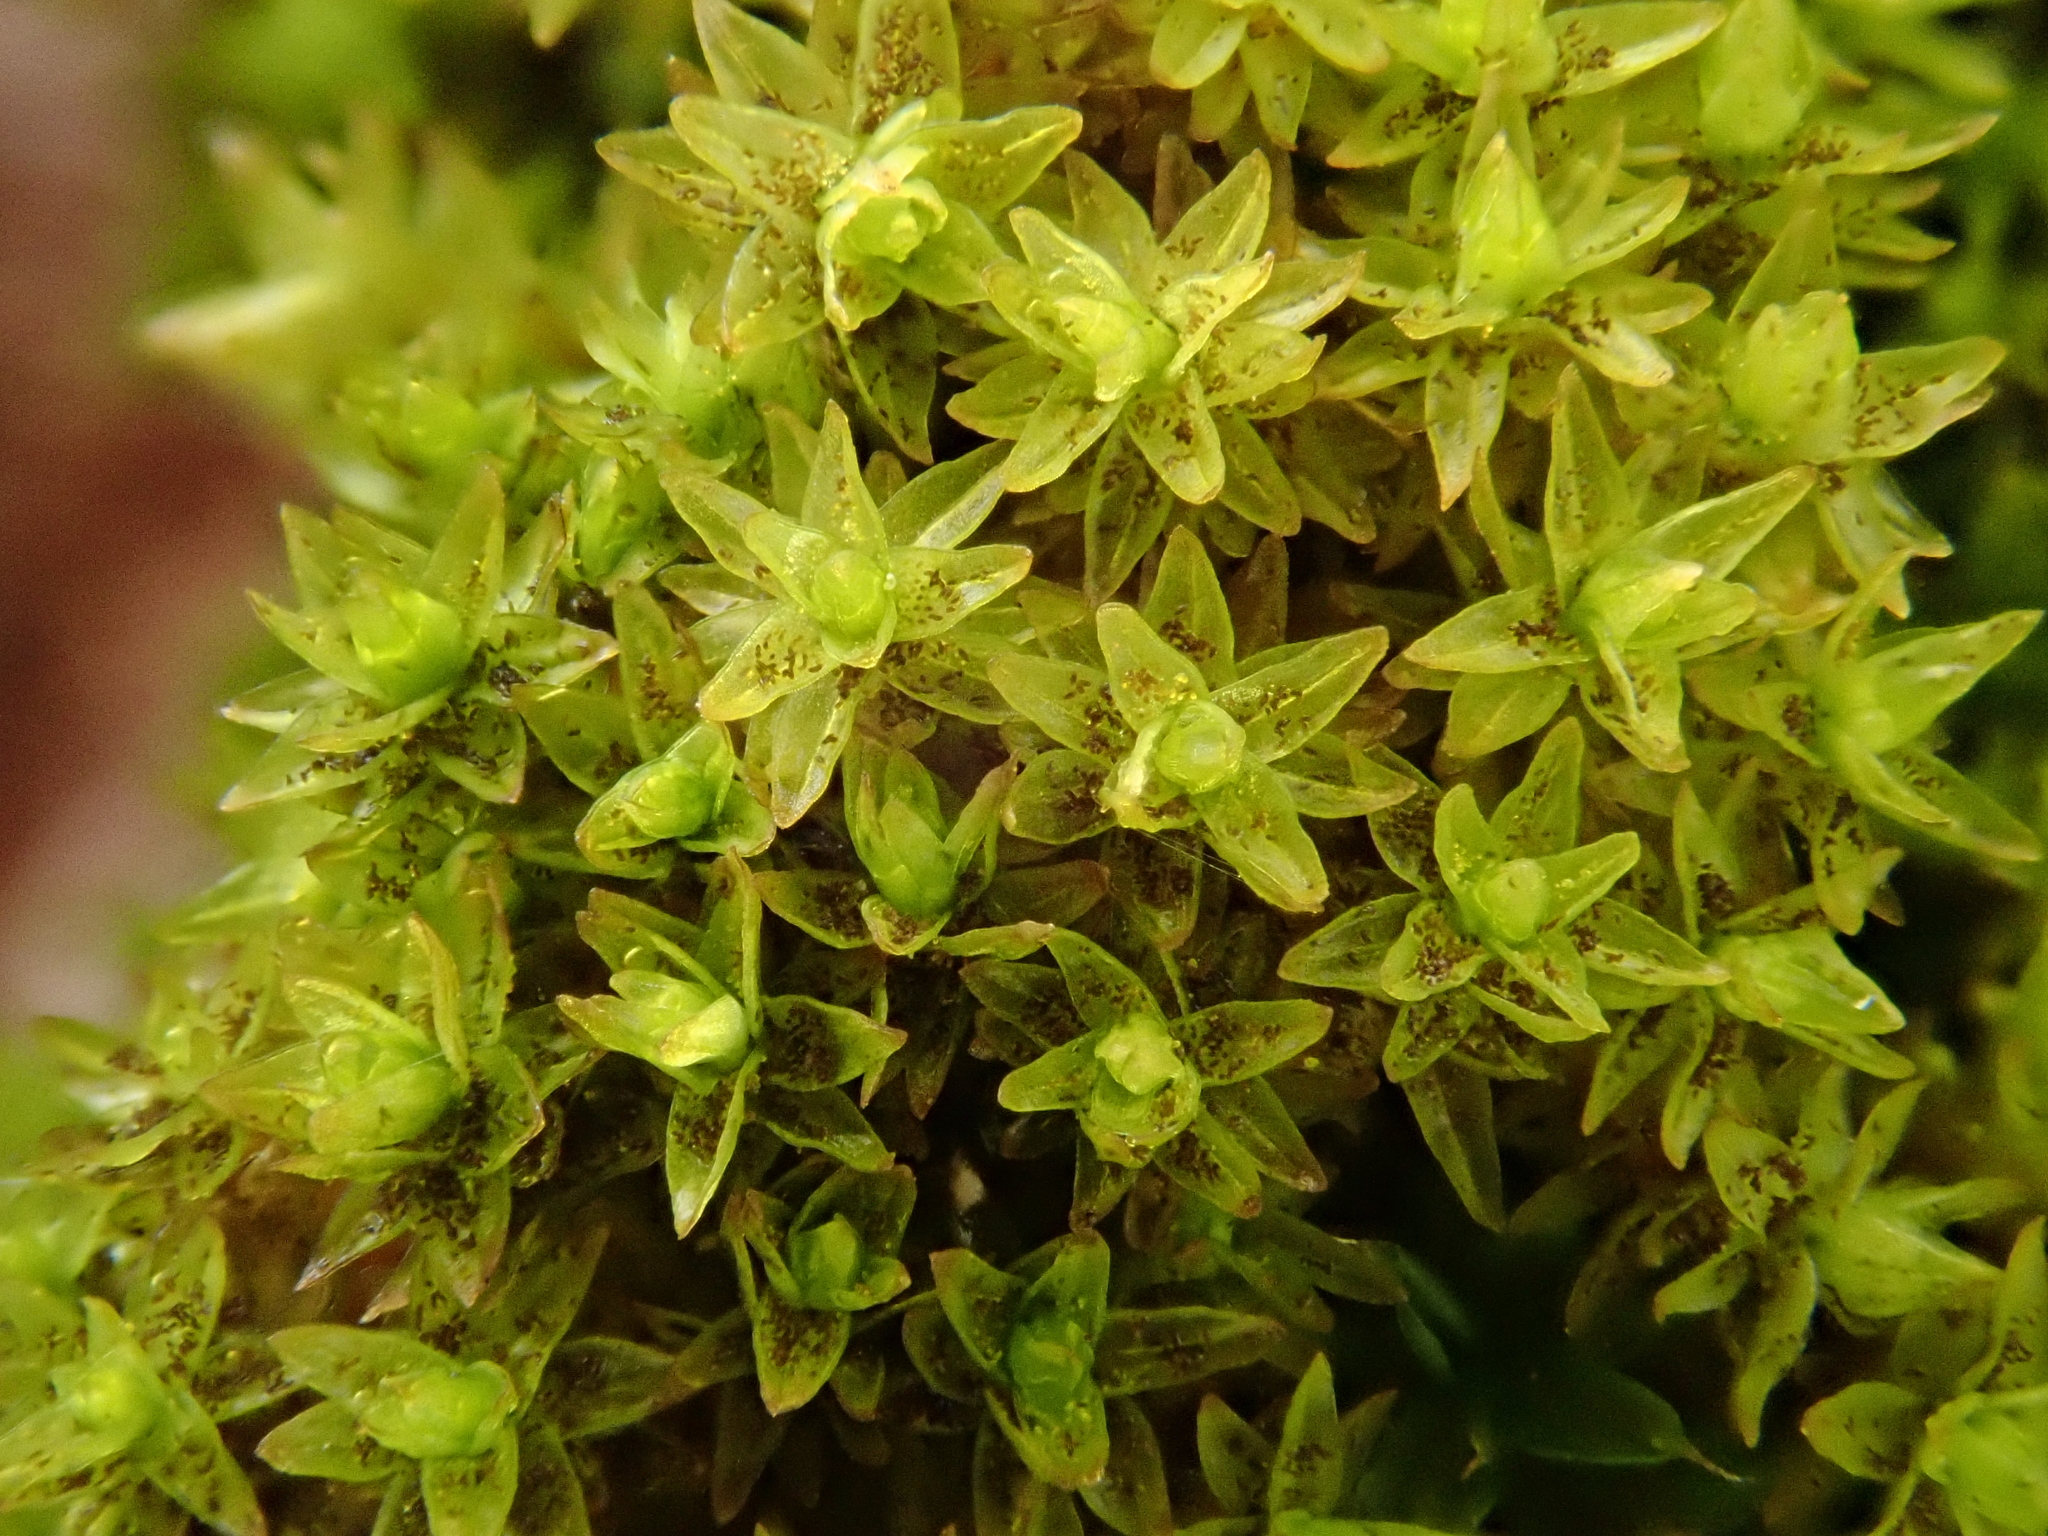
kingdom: Plantae
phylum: Bryophyta
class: Bryopsida
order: Orthotrichales
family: Orthotrichaceae
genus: Nyholmiella
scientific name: Nyholmiella obtusifolia
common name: Blunt-leaved bristle-moss
